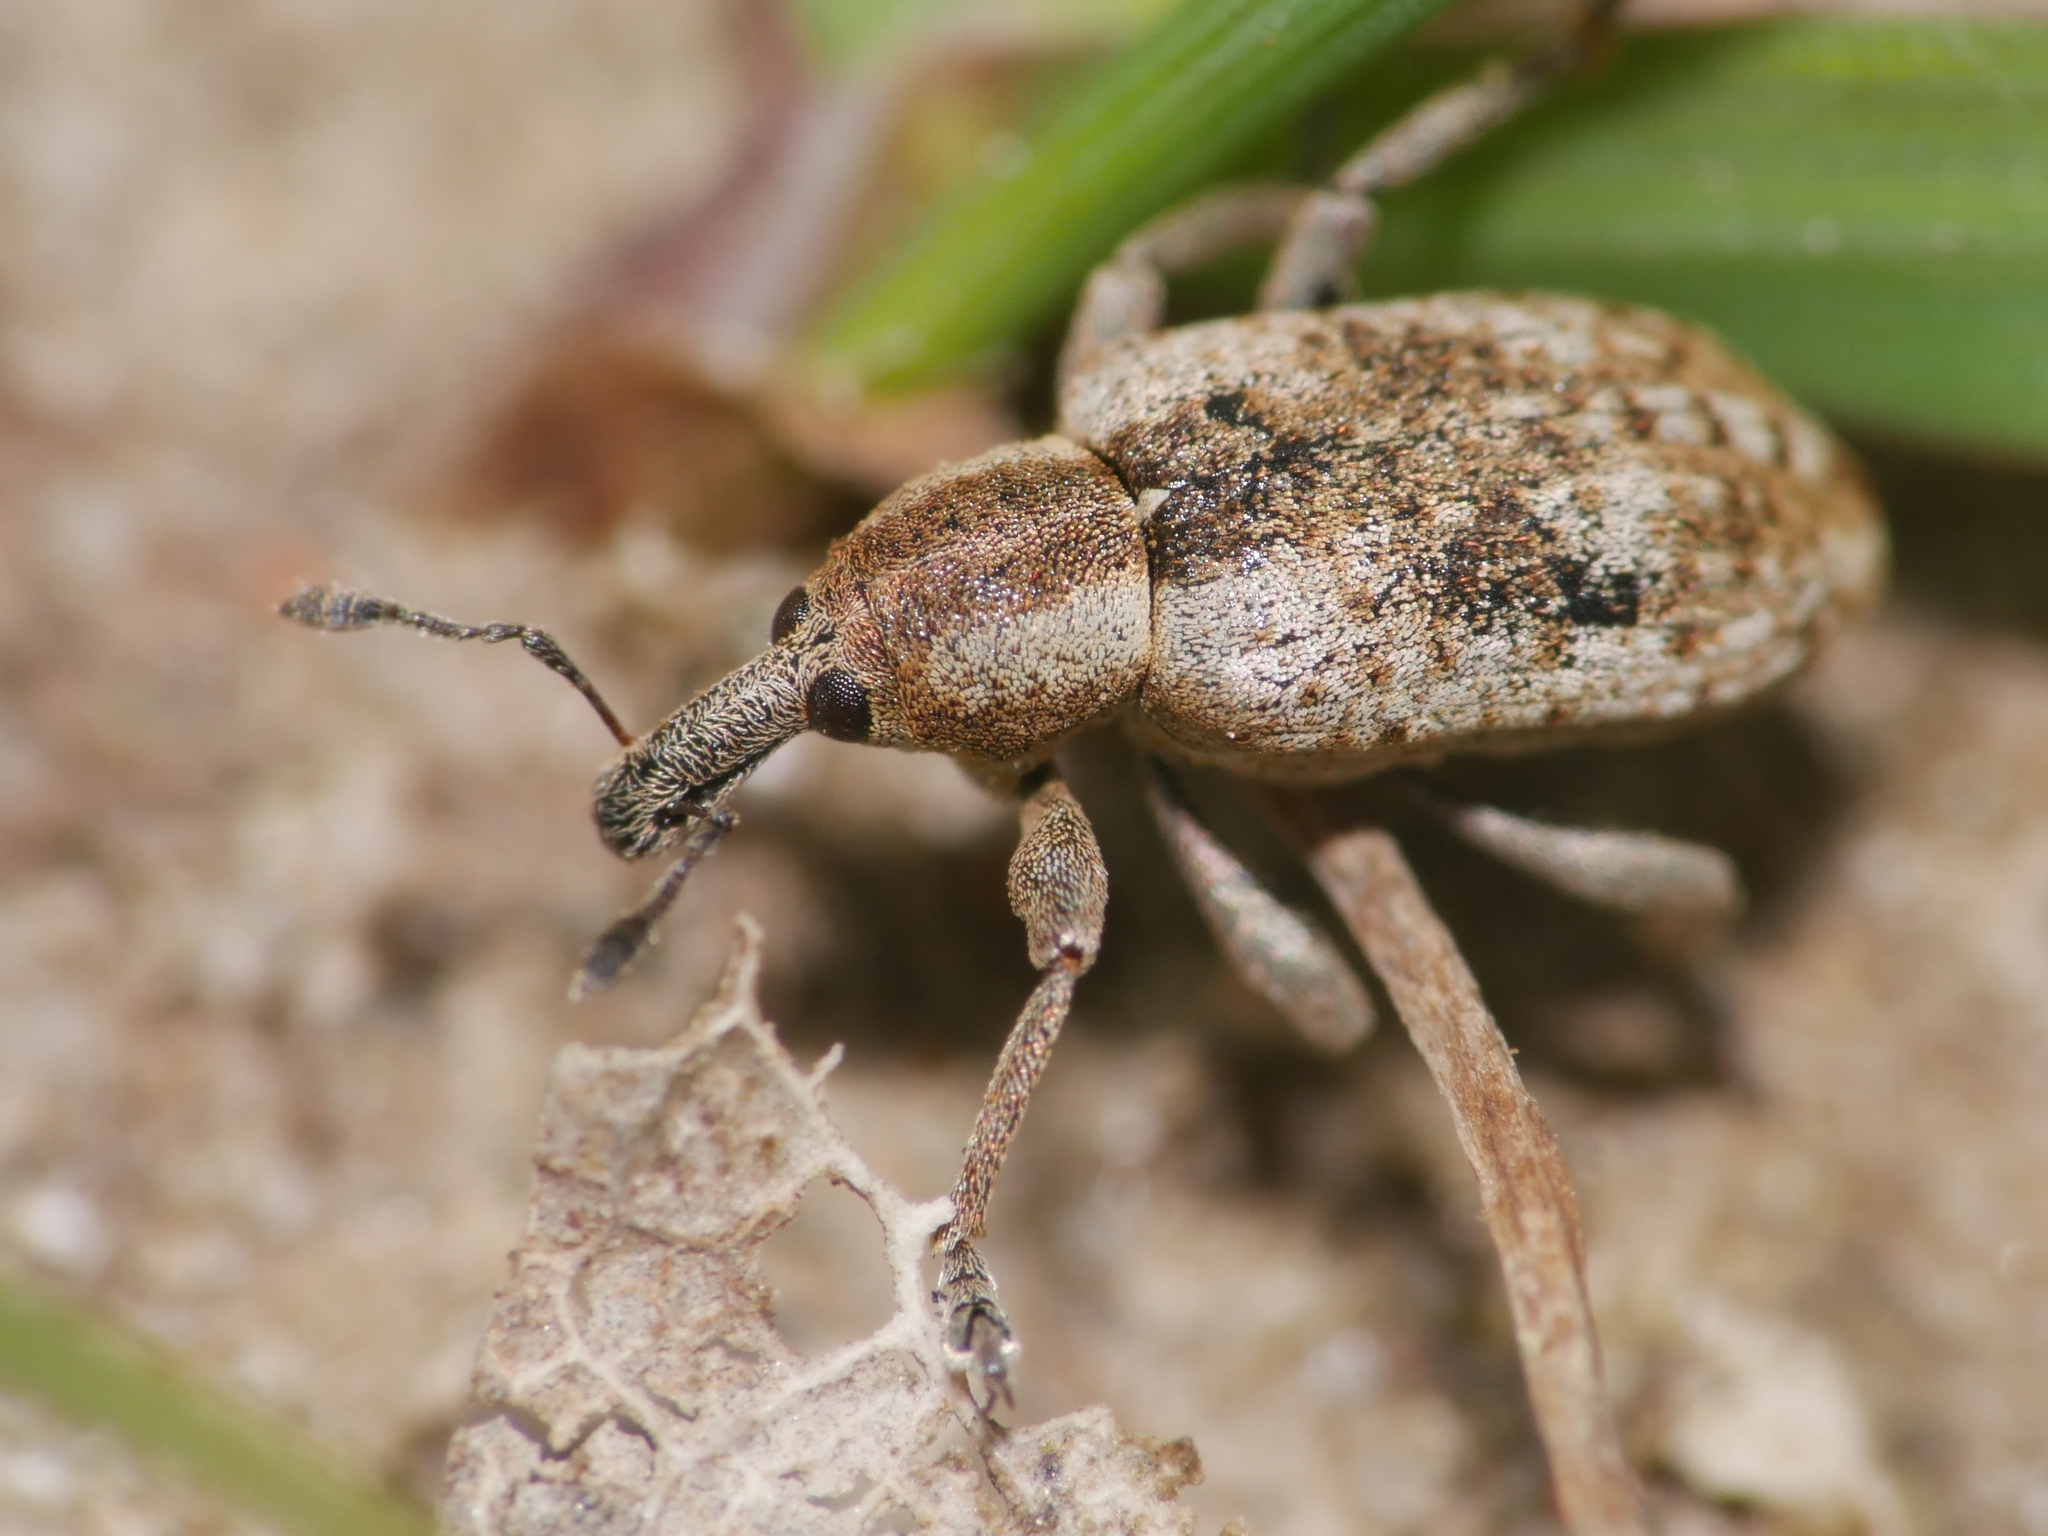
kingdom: Animalia
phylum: Arthropoda
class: Insecta
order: Coleoptera
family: Curculionidae
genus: Hypera
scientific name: Hypera rumicis
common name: Weevil
